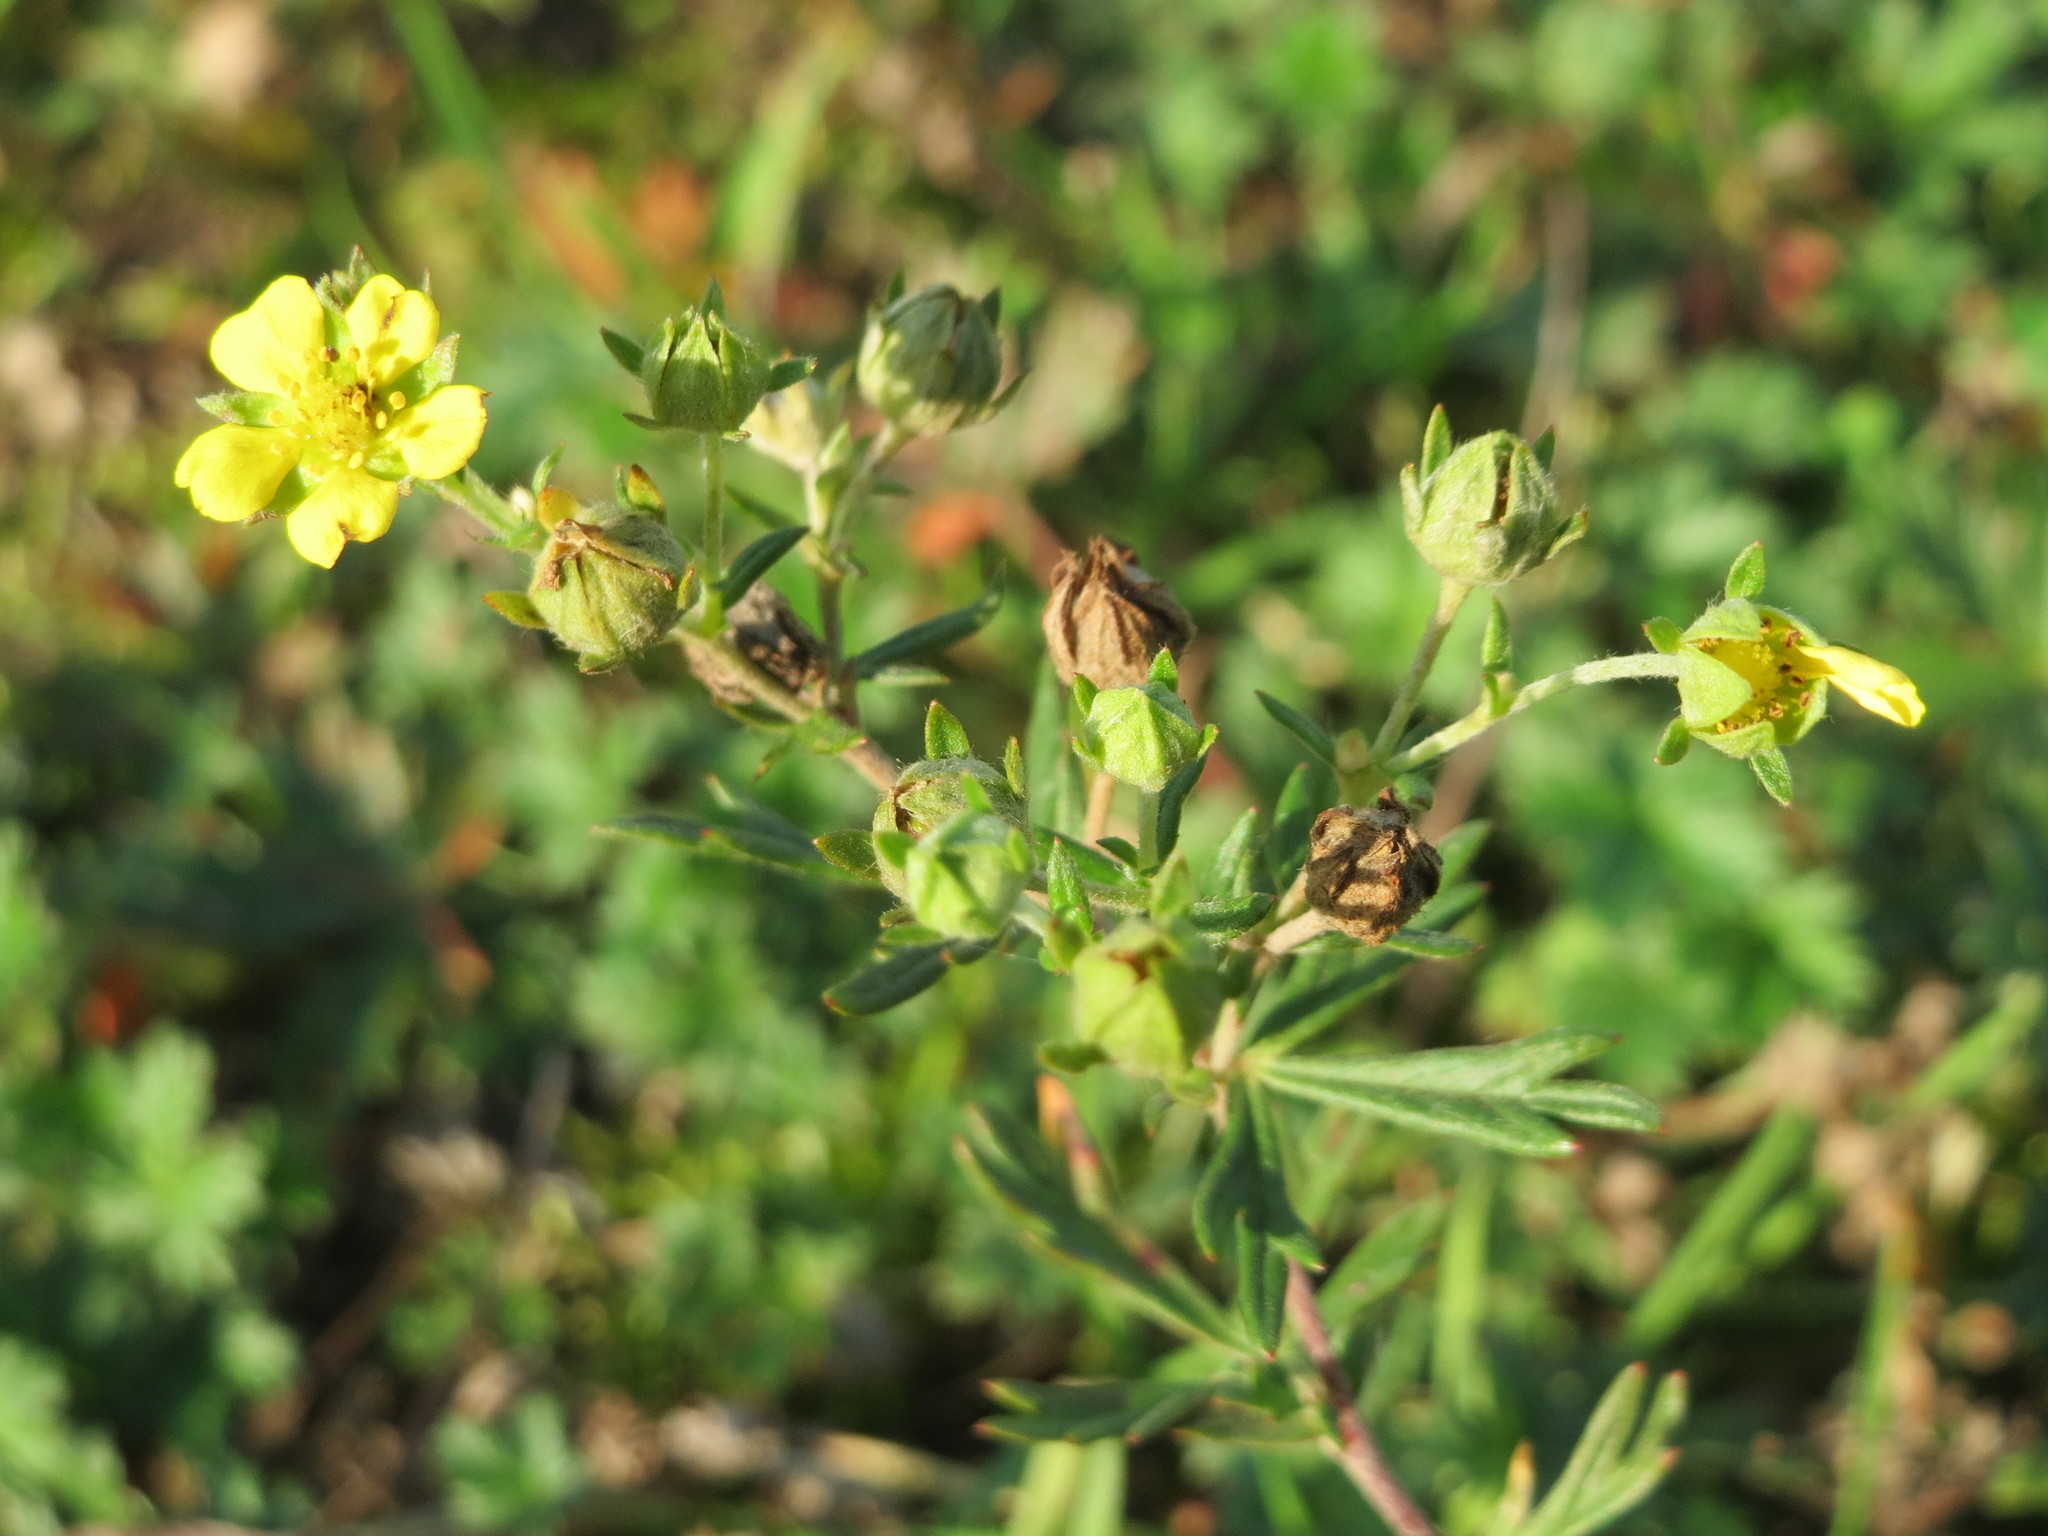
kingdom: Plantae
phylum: Tracheophyta
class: Magnoliopsida
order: Rosales
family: Rosaceae
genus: Potentilla
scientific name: Potentilla argentea
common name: Hoary cinquefoil
